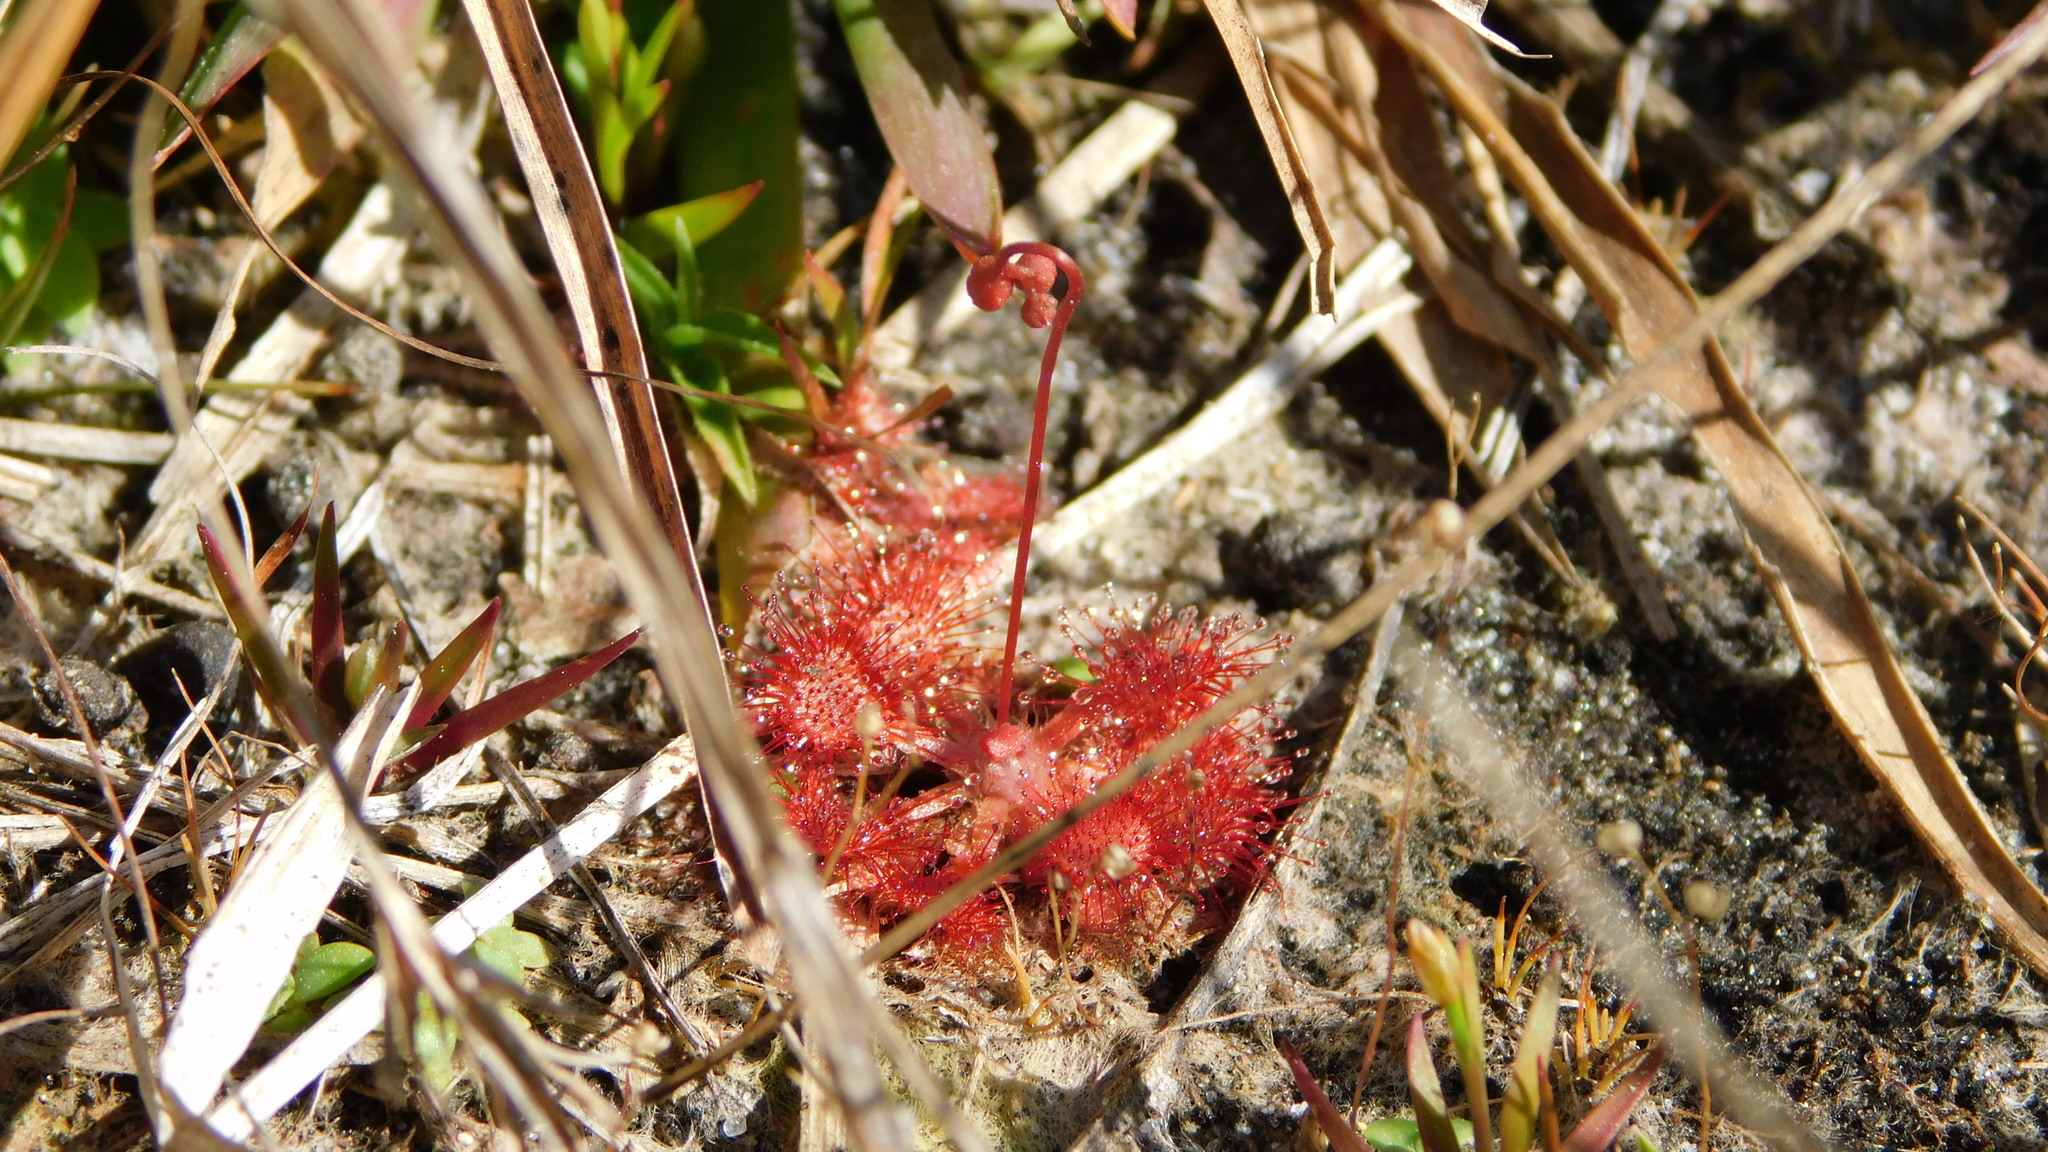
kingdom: Plantae
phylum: Tracheophyta
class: Magnoliopsida
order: Caryophyllales
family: Droseraceae
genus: Drosera
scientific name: Drosera capillaris
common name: Pink sundew
